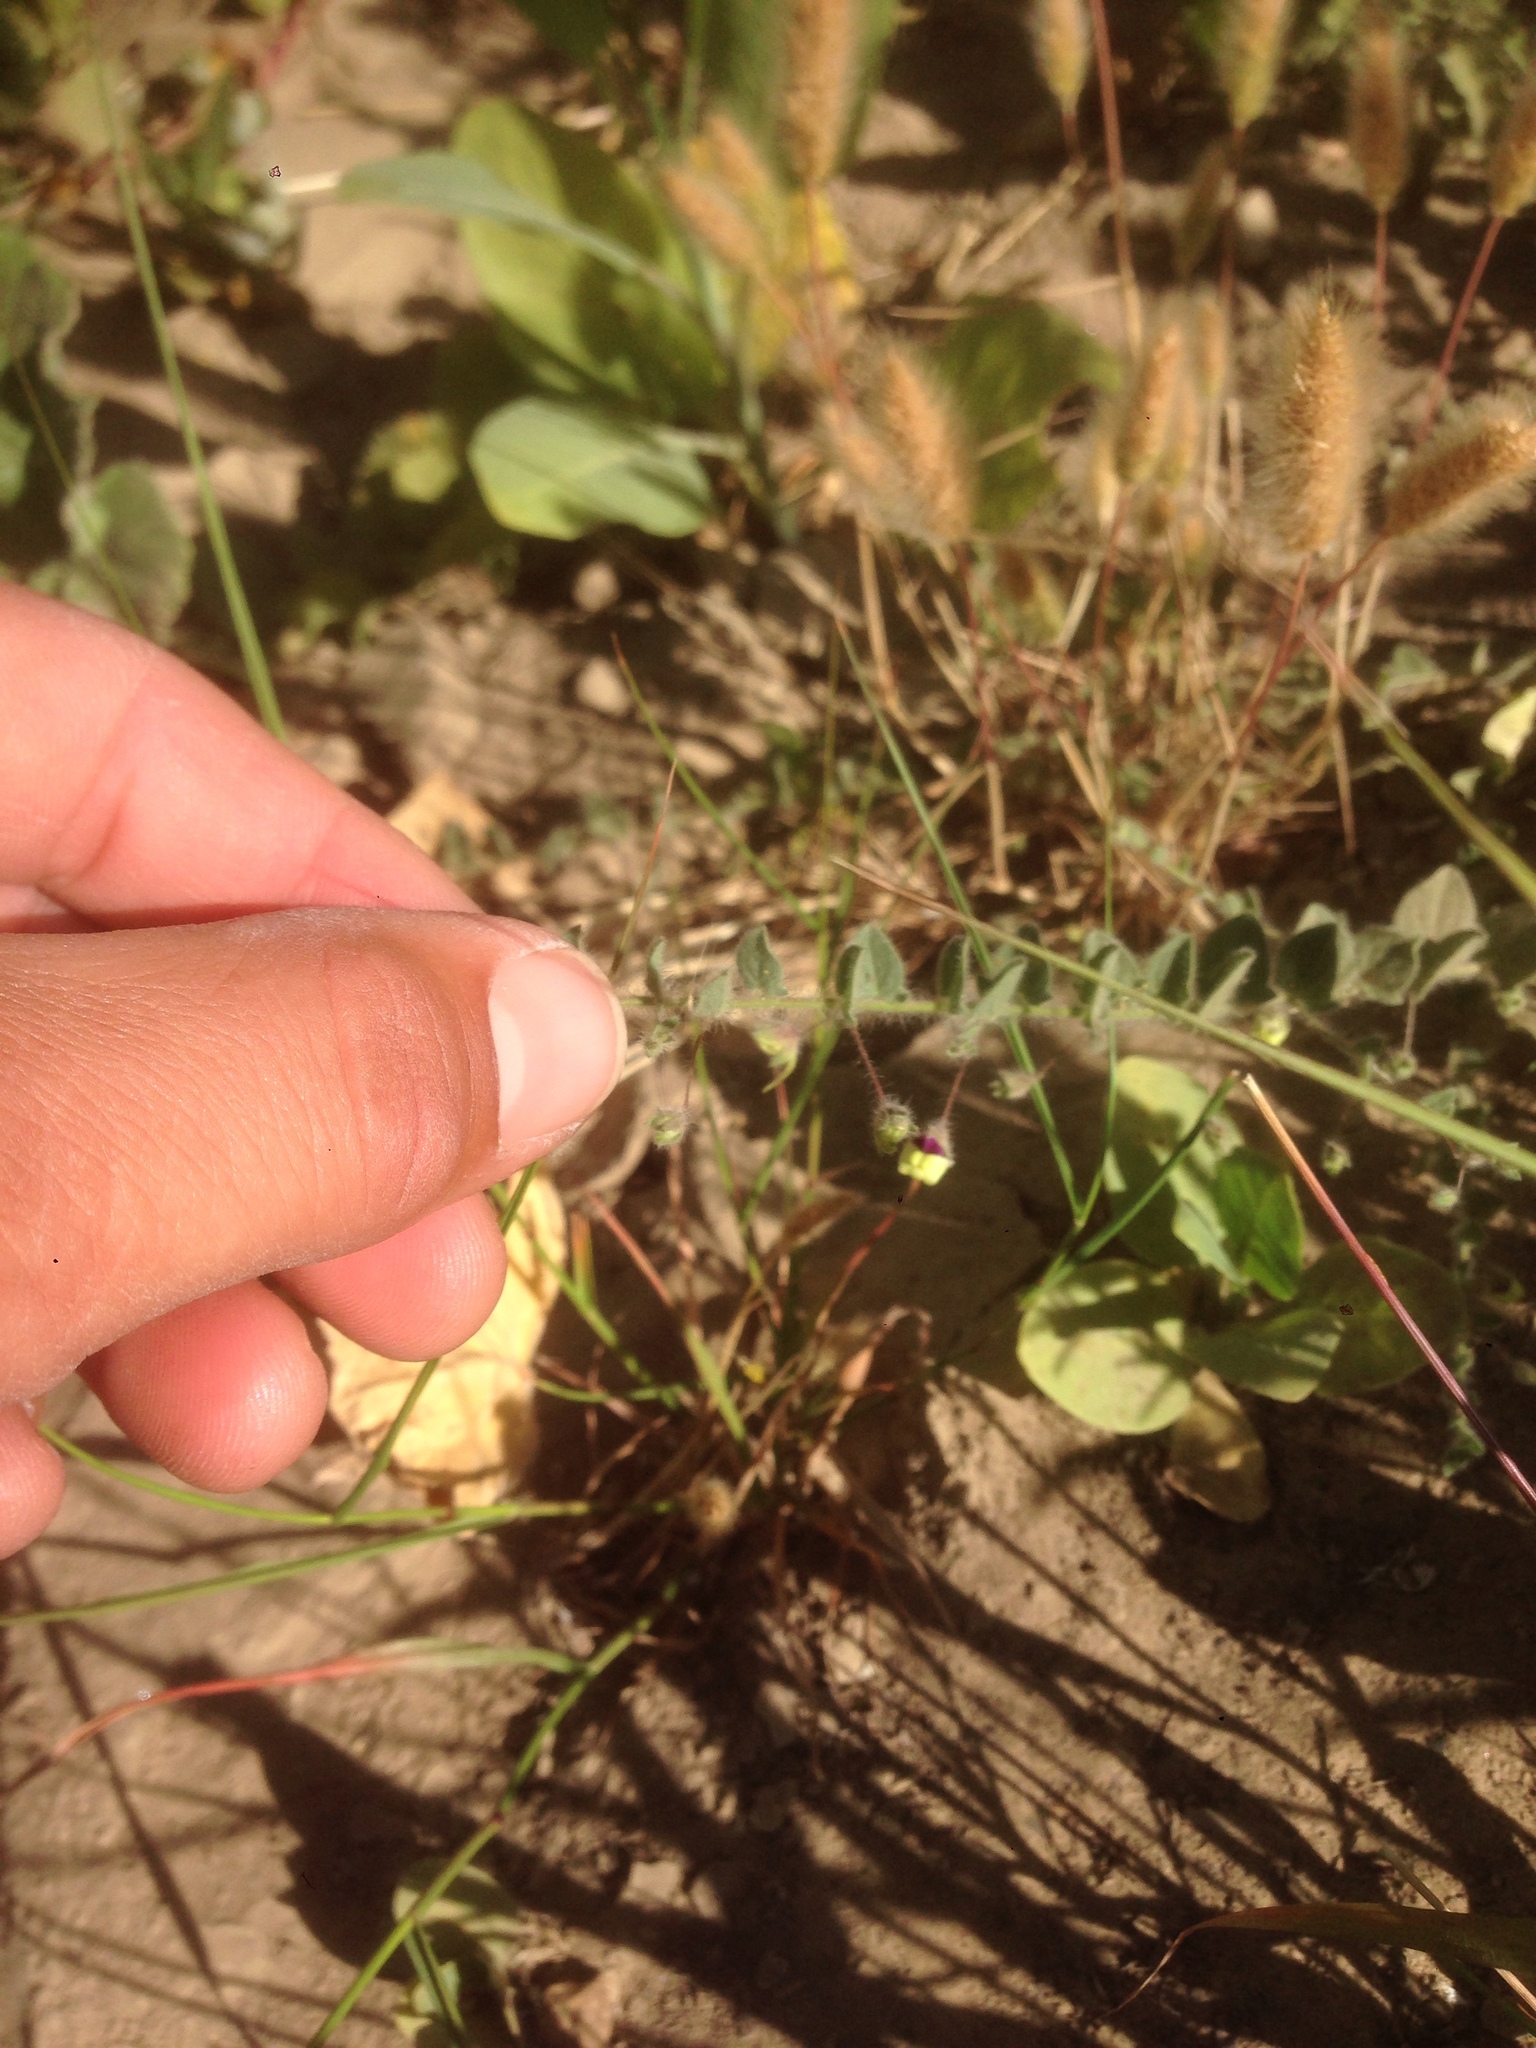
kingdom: Plantae
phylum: Tracheophyta
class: Magnoliopsida
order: Lamiales
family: Plantaginaceae
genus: Kickxia
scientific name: Kickxia elatine
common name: Sharp-leaved fluellen
